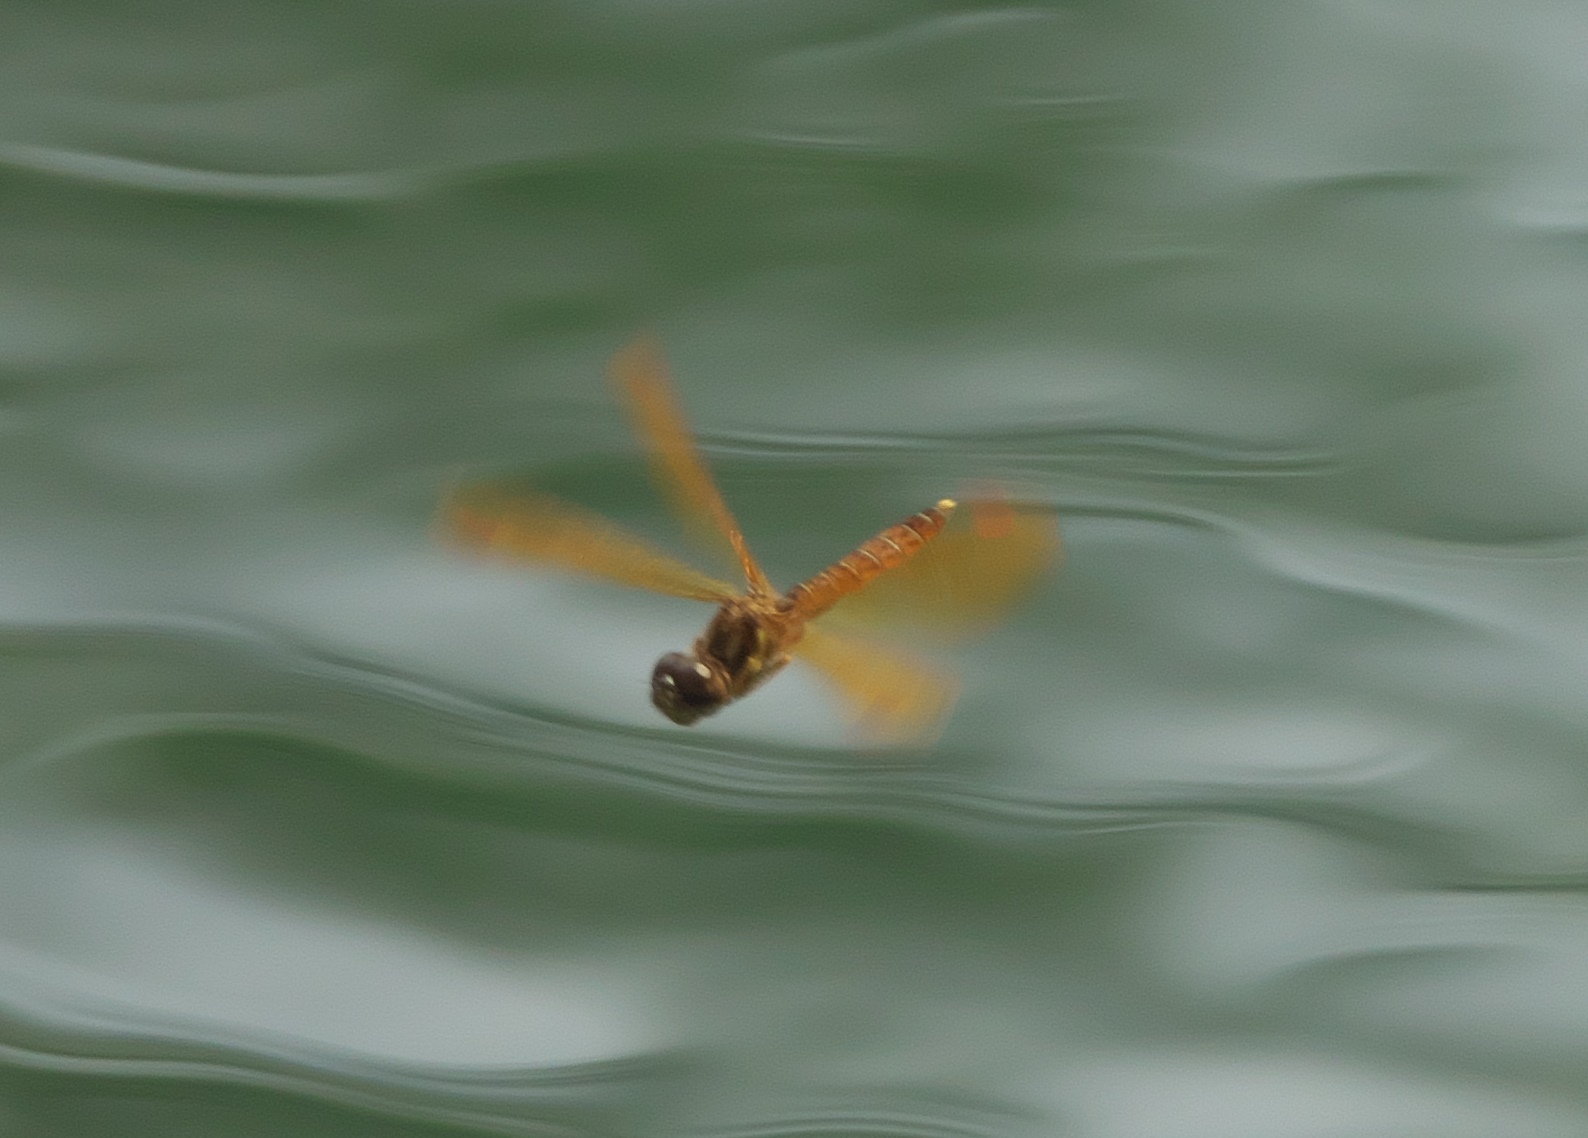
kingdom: Animalia
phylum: Arthropoda
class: Insecta
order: Odonata
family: Libellulidae
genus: Perithemis
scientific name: Perithemis tenera
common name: Eastern amberwing
